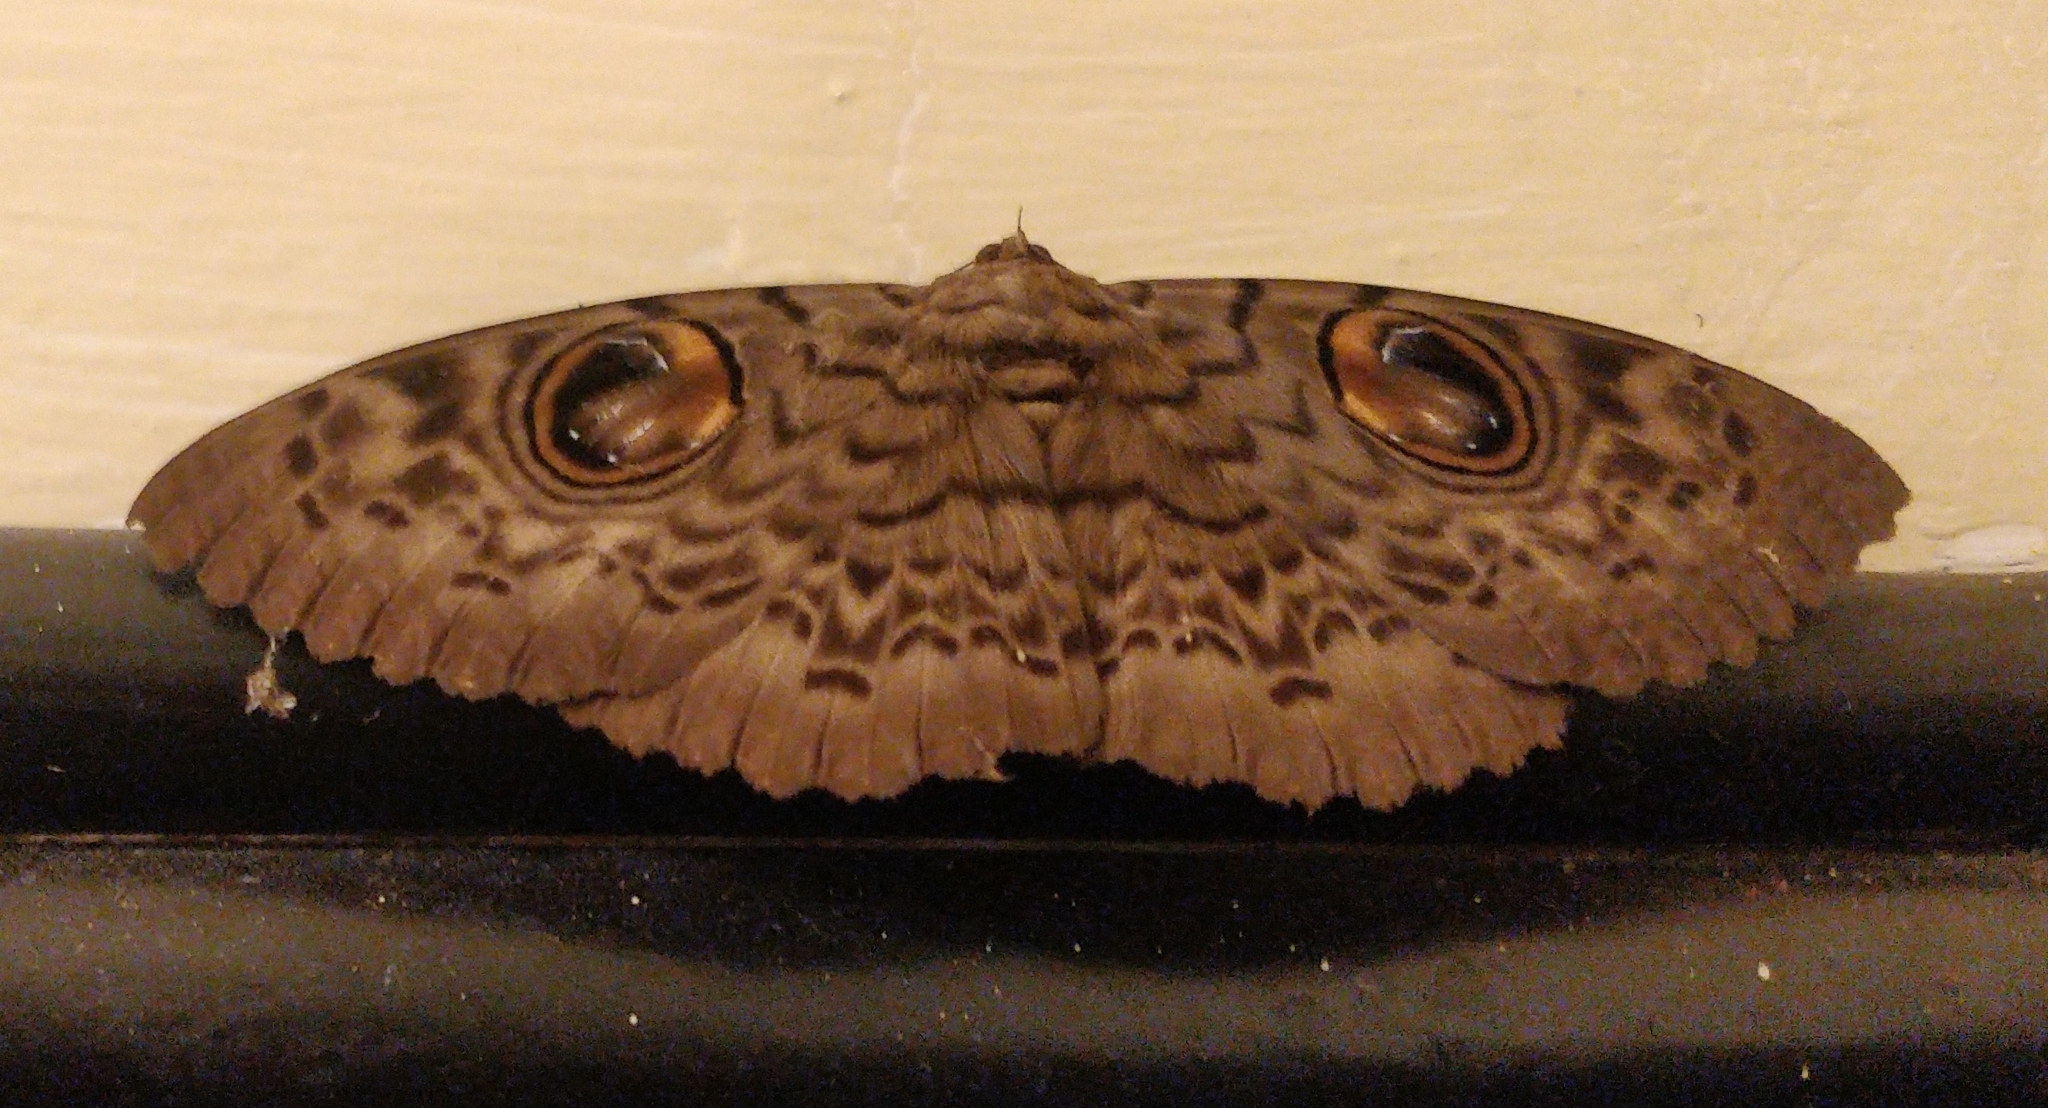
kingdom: Animalia
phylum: Arthropoda
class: Insecta
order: Lepidoptera
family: Erebidae
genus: Erebus
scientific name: Erebus macrops
